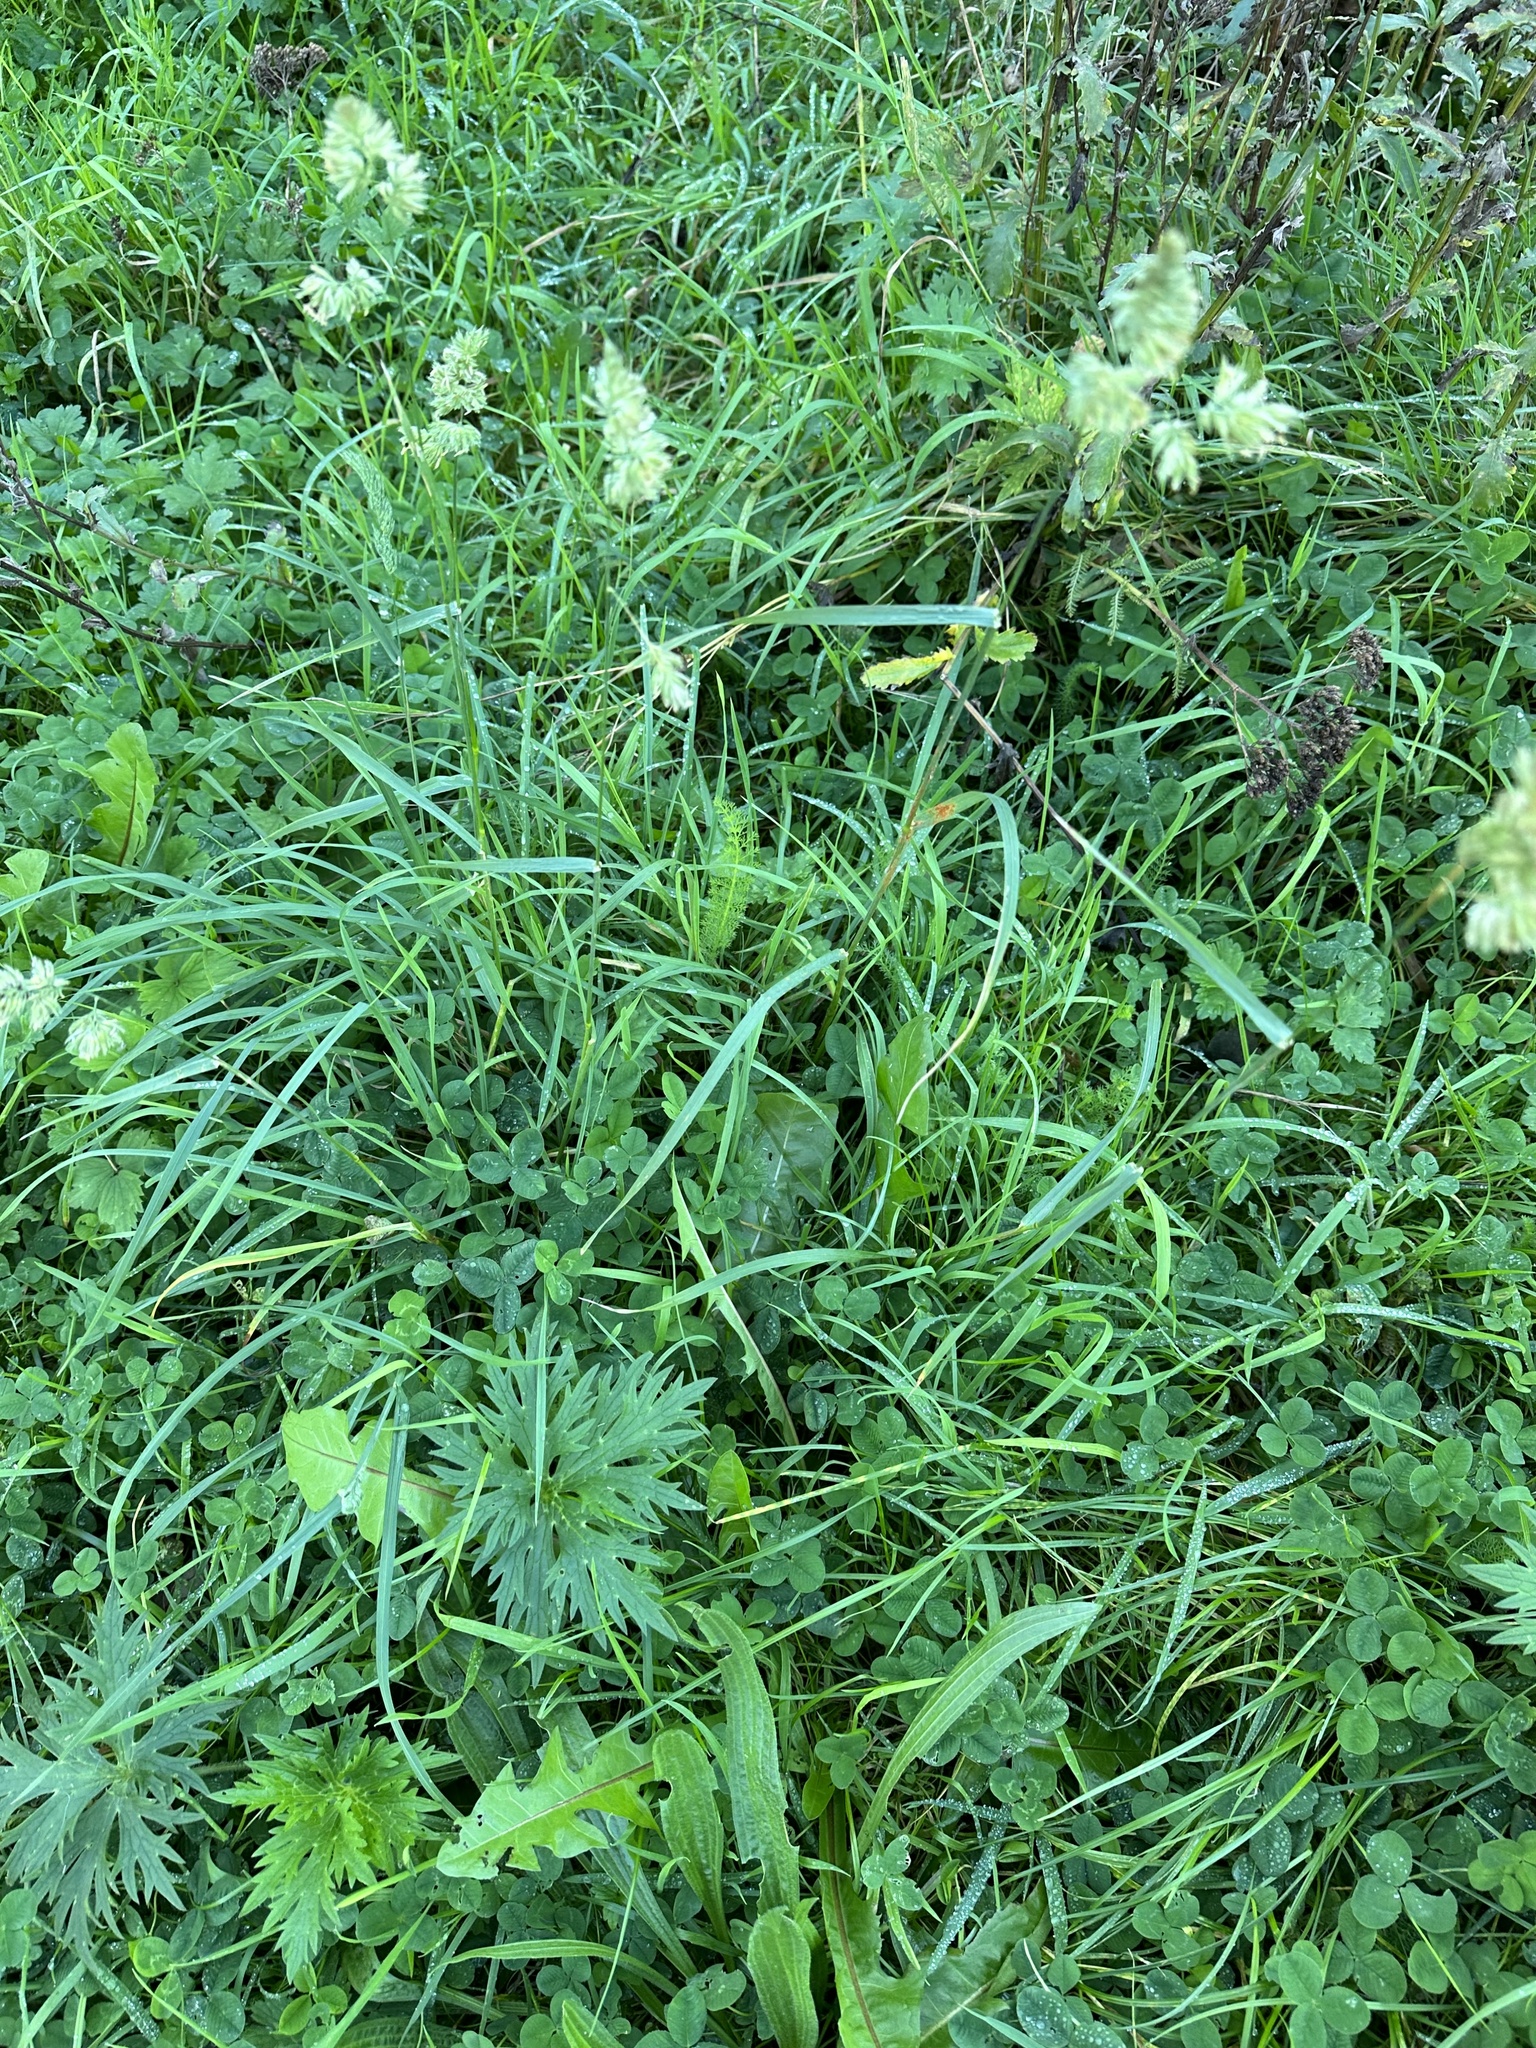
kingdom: Plantae
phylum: Tracheophyta
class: Liliopsida
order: Poales
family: Poaceae
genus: Dactylis
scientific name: Dactylis glomerata
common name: Orchardgrass
